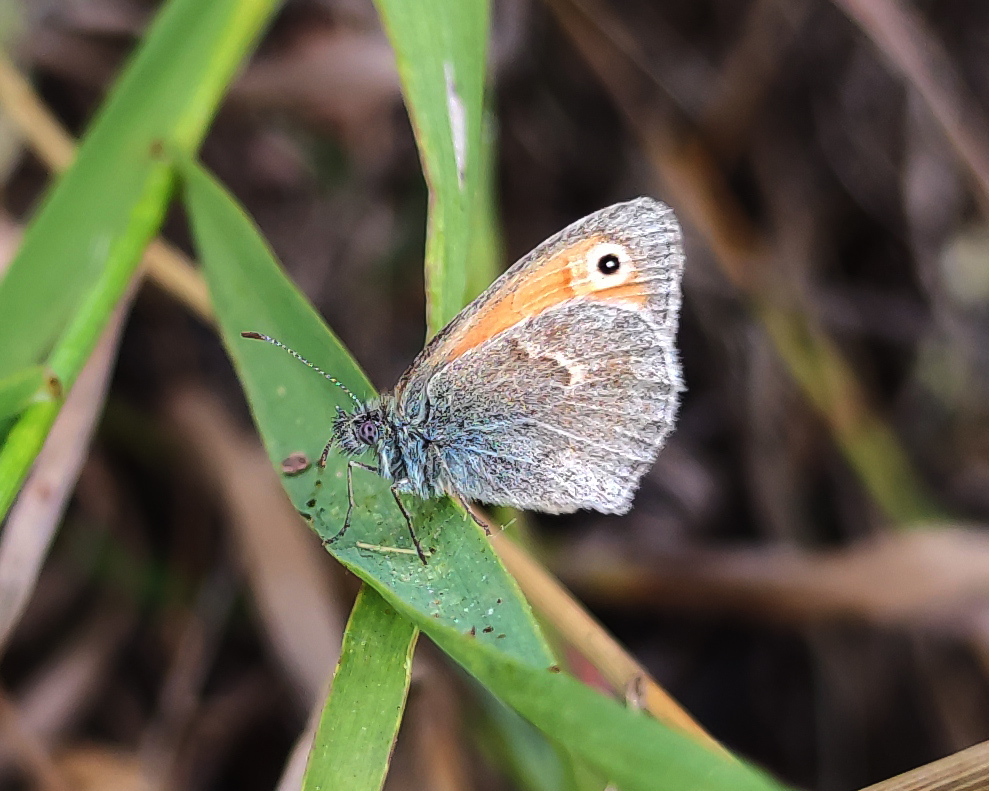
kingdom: Animalia
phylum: Arthropoda
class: Insecta
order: Lepidoptera
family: Nymphalidae
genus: Coenonympha
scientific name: Coenonympha pamphilus
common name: Small heath
